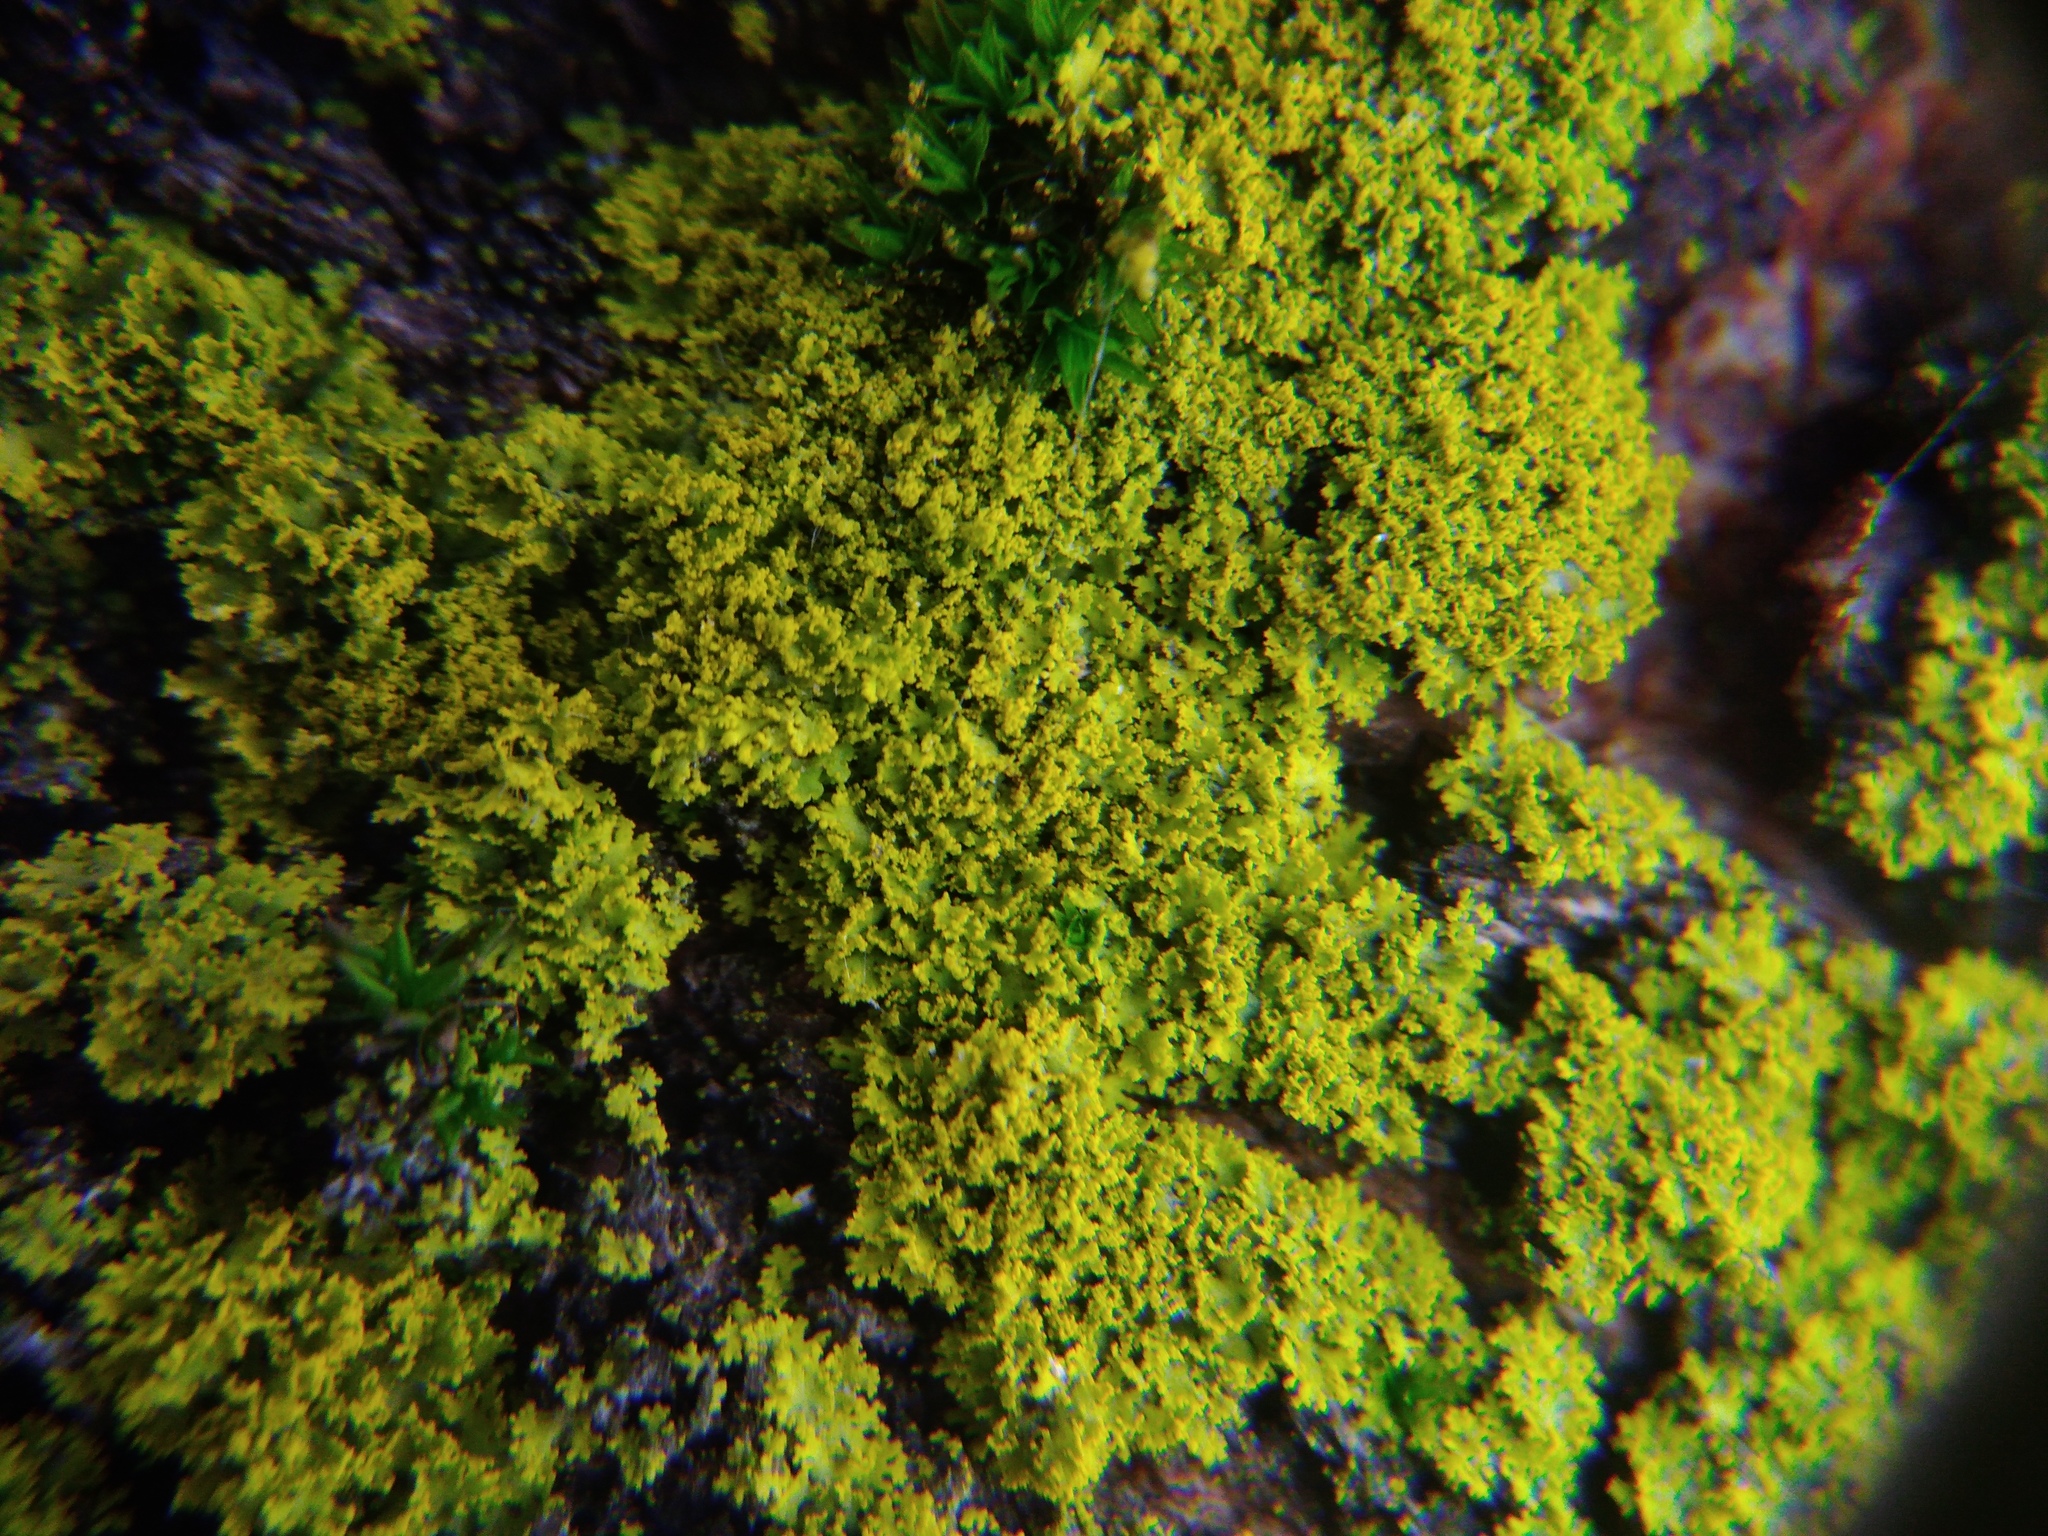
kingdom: Fungi
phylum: Ascomycota
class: Candelariomycetes
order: Candelariales
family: Candelariaceae
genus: Candelaria
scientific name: Candelaria concolor
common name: Candleflame lichen
